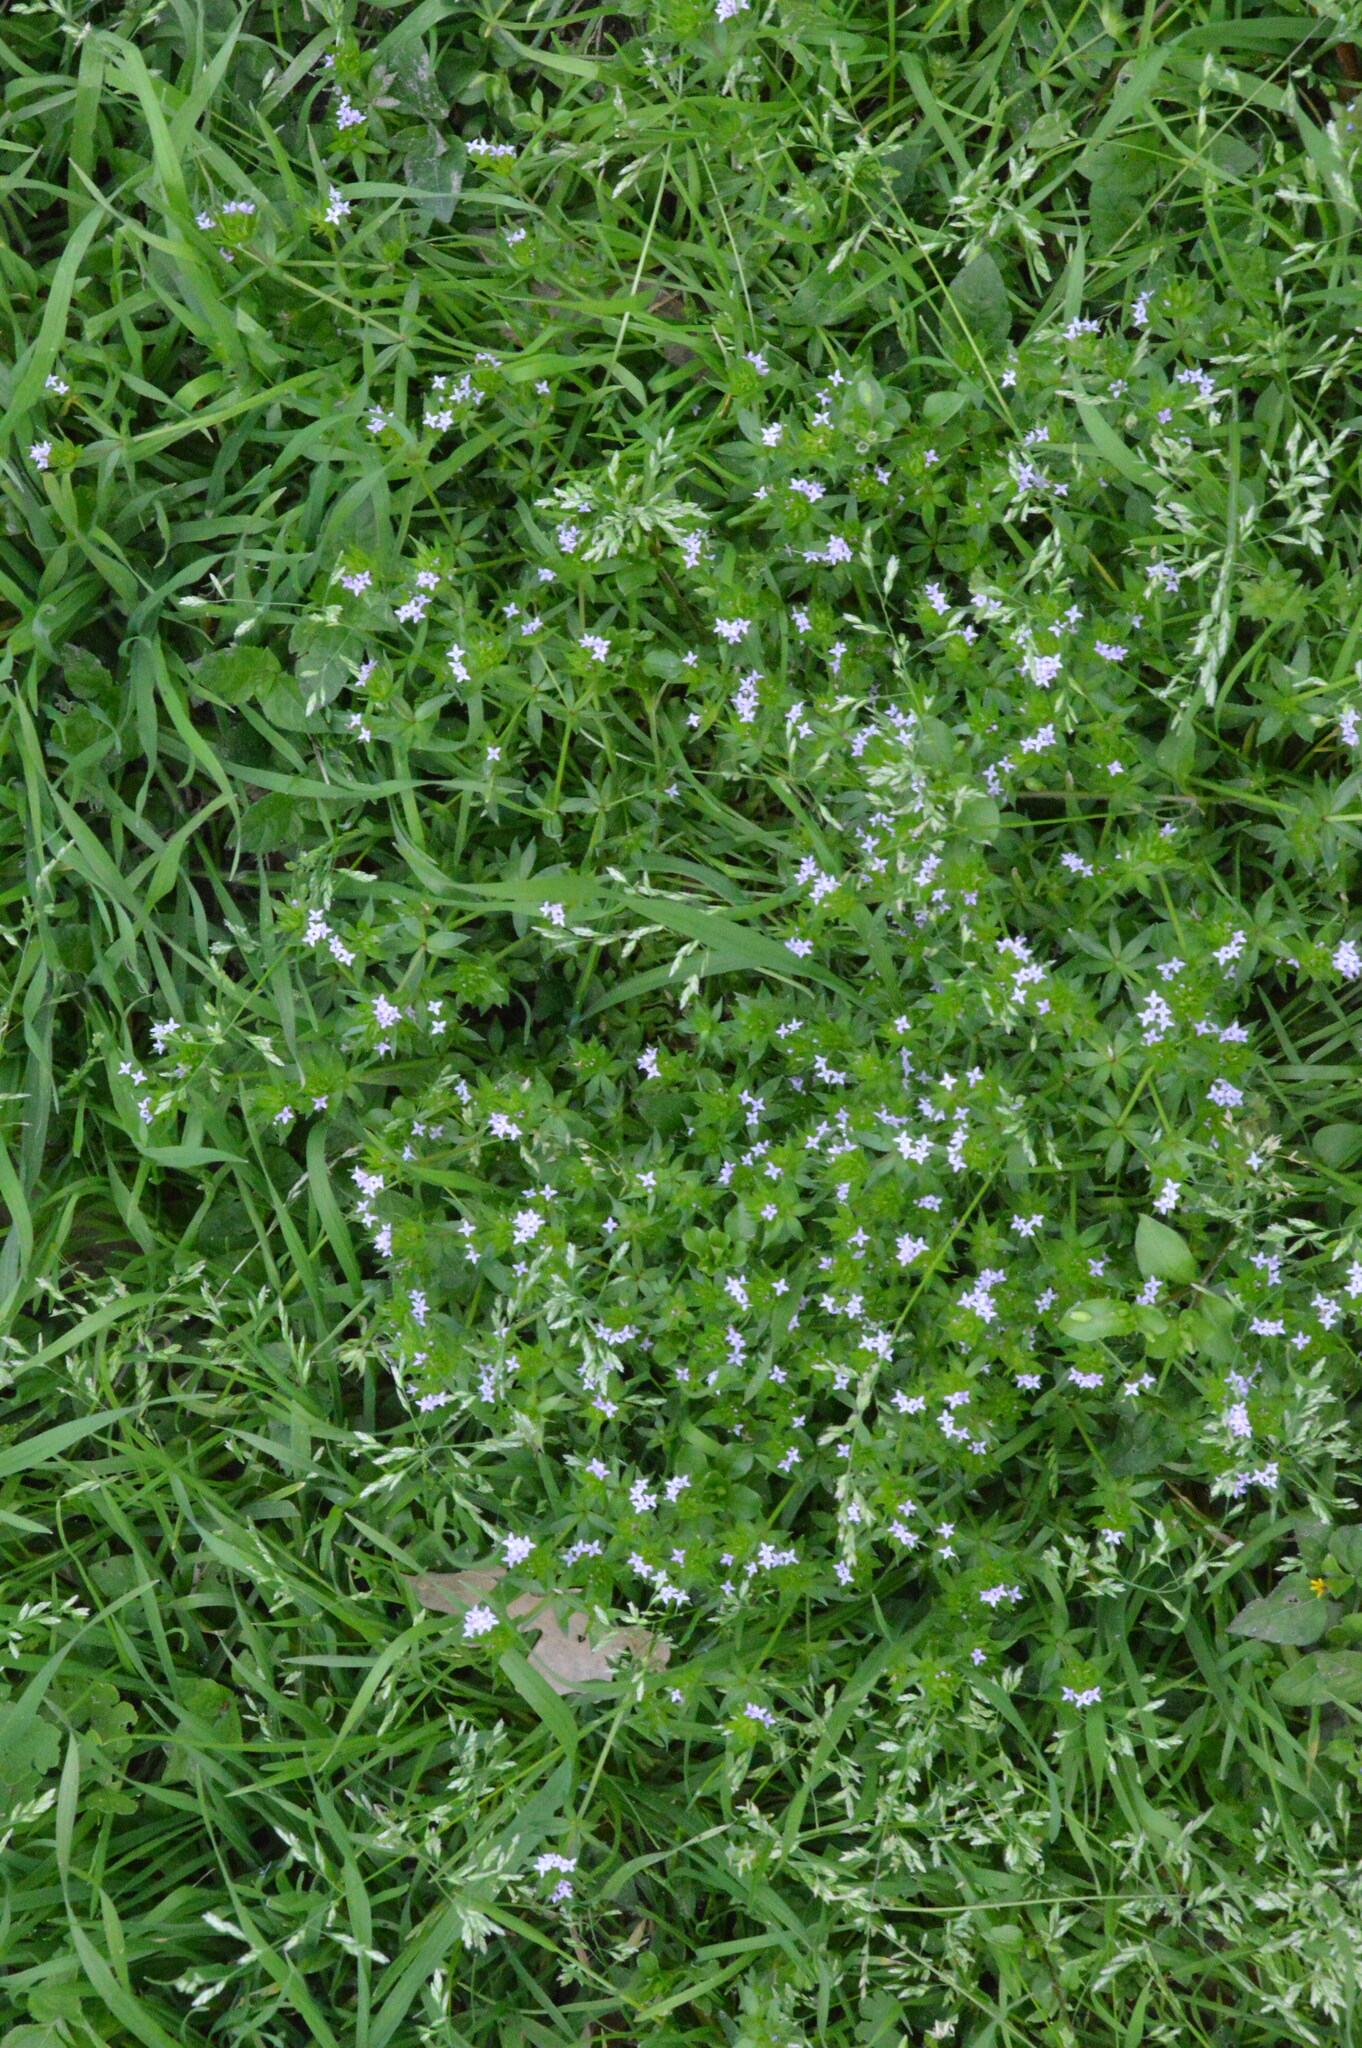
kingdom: Plantae
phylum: Tracheophyta
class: Magnoliopsida
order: Gentianales
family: Rubiaceae
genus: Sherardia
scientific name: Sherardia arvensis
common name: Field madder
